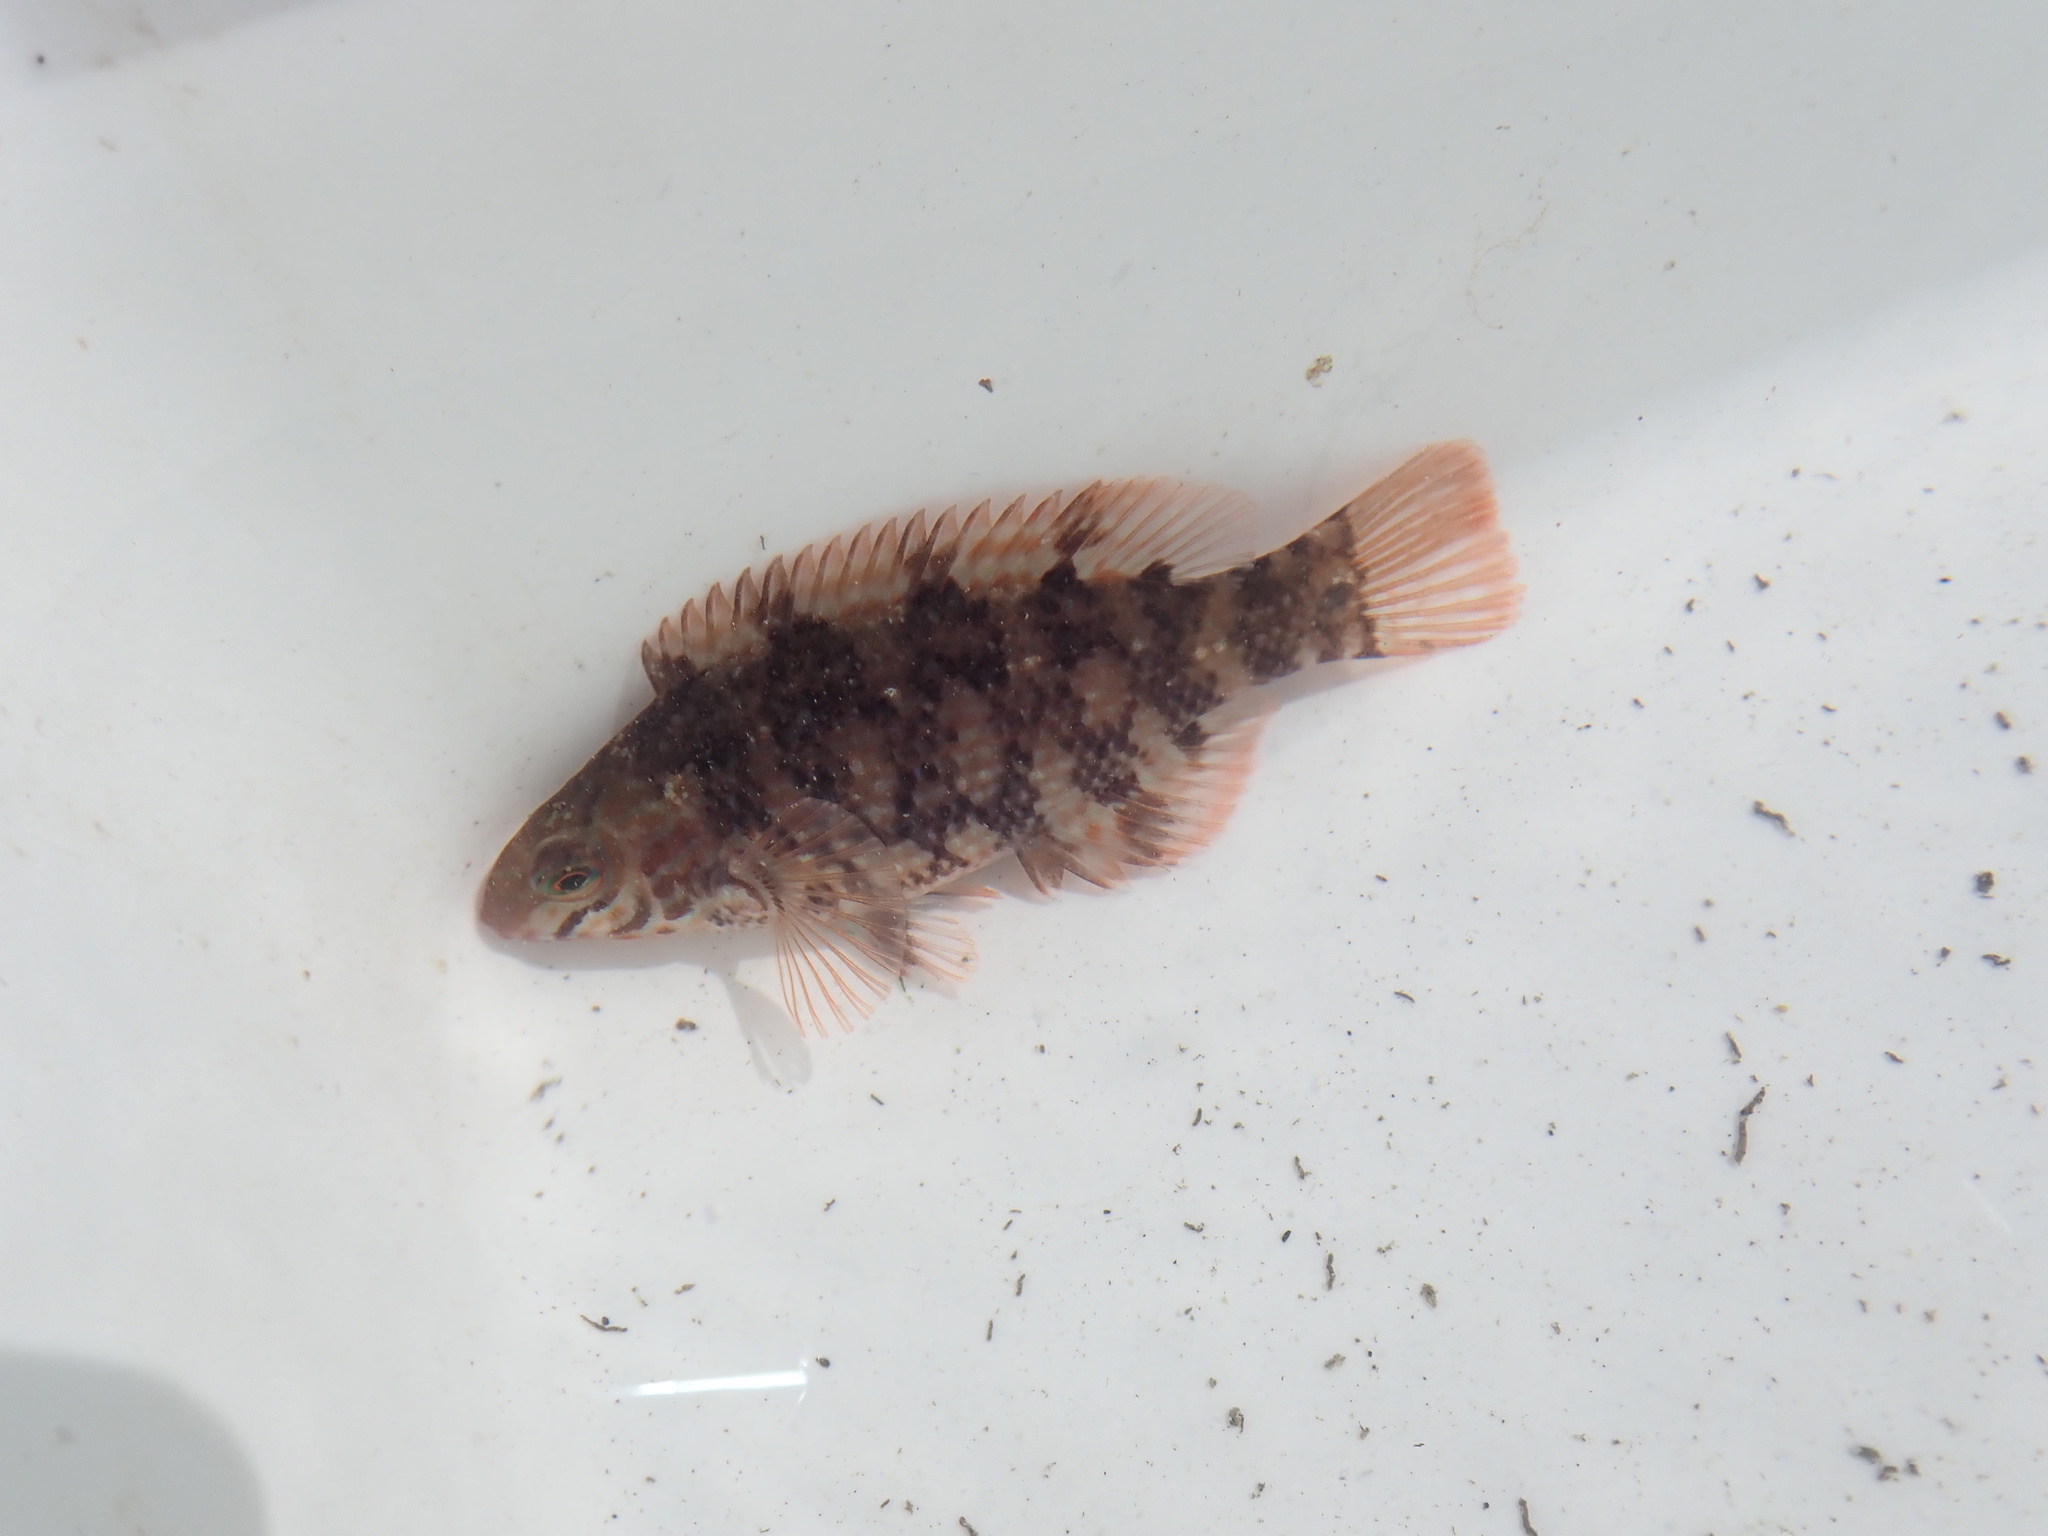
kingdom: Animalia
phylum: Chordata
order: Perciformes
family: Labridae
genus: Symphodus
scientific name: Symphodus melops
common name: Corkwing
